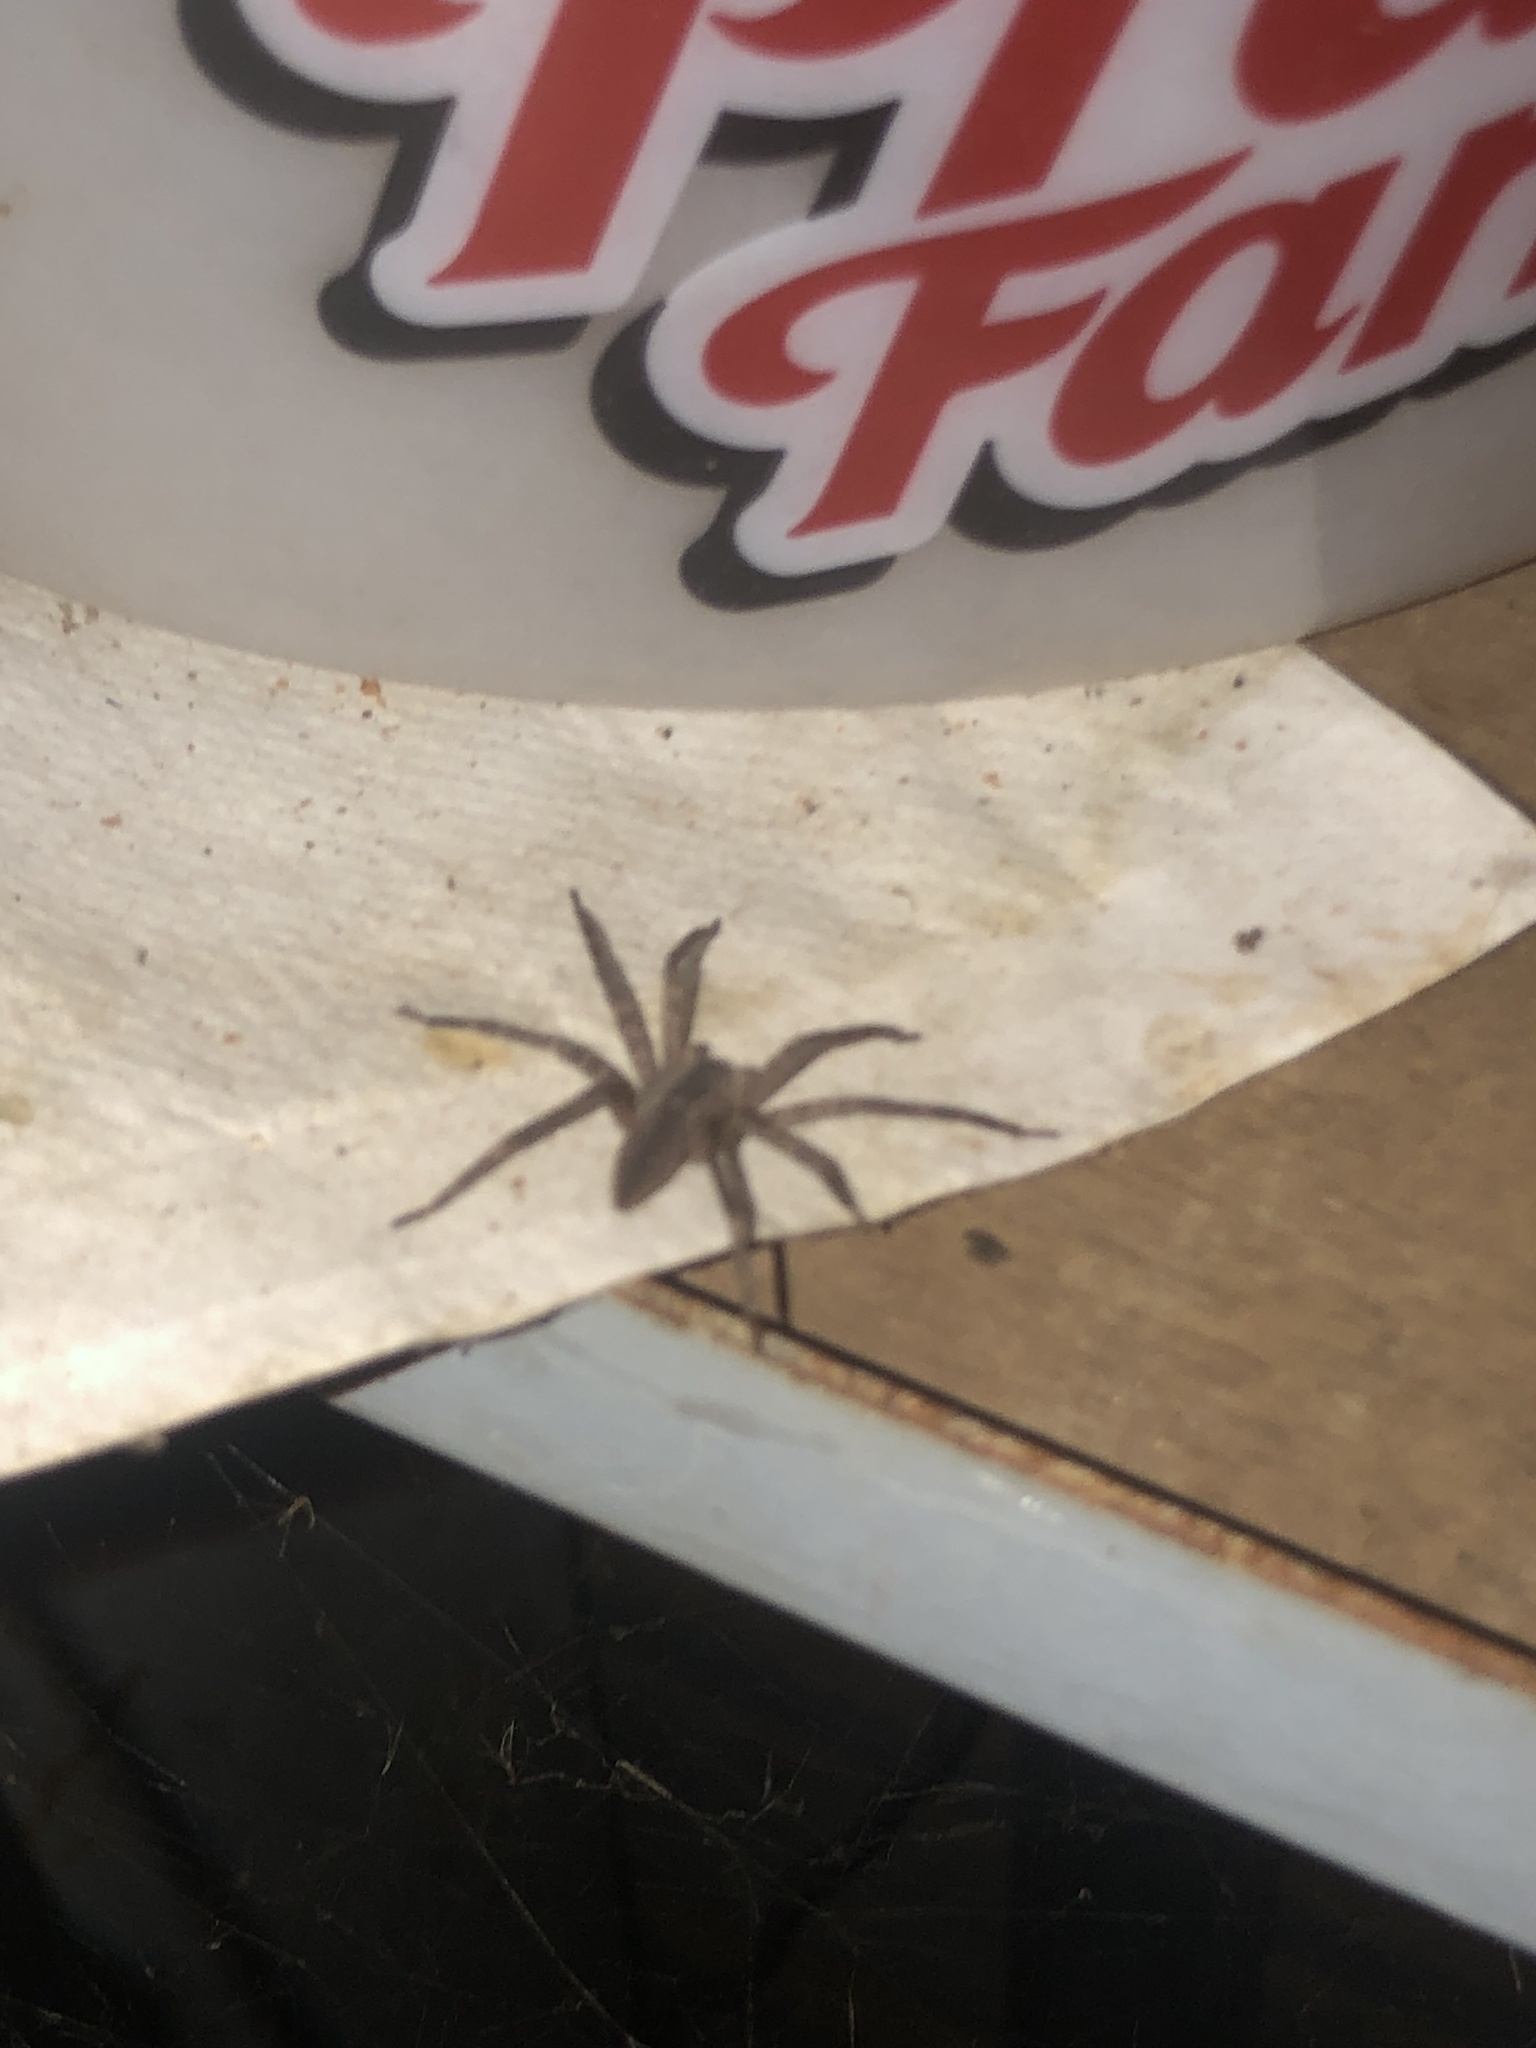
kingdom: Animalia
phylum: Arthropoda
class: Arachnida
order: Araneae
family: Pisauridae
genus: Pisaurina
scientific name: Pisaurina mira
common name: American nursery web spider
